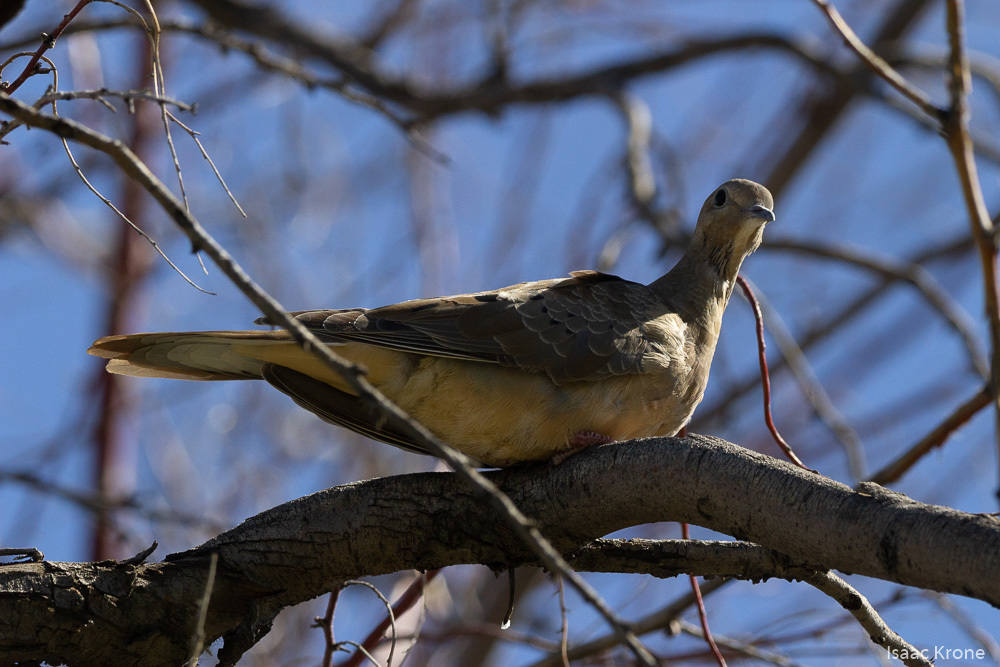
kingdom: Animalia
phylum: Chordata
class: Aves
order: Columbiformes
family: Columbidae
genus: Zenaida
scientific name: Zenaida macroura
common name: Mourning dove
